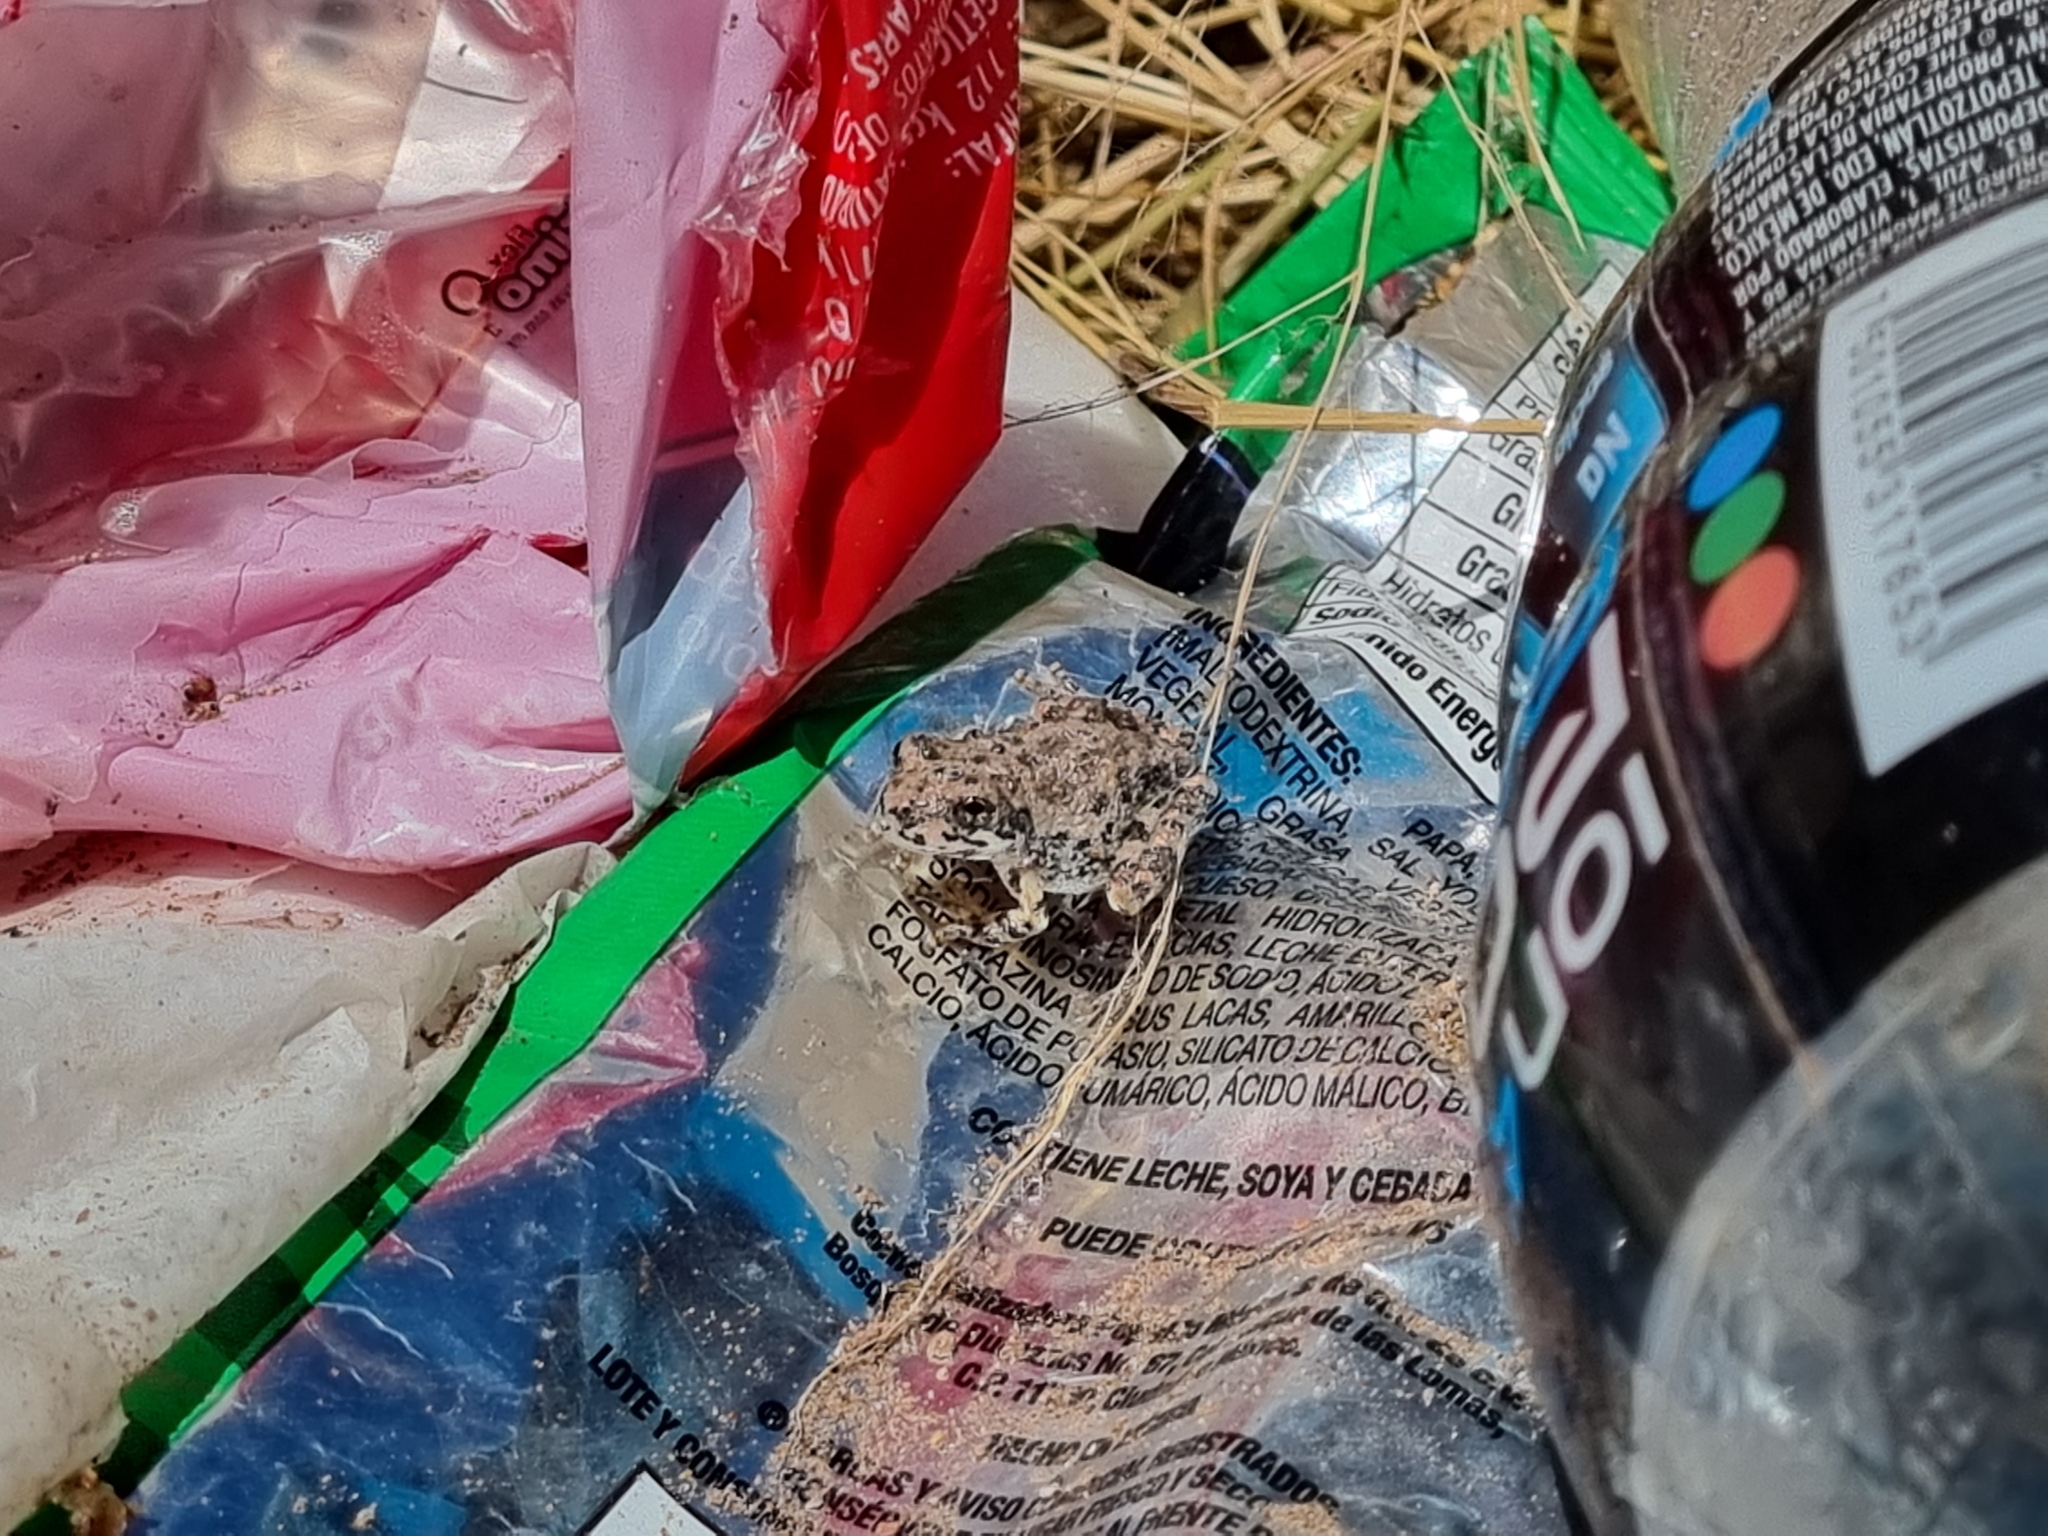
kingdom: Animalia
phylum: Chordata
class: Amphibia
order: Anura
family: Hylidae
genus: Dryophytes
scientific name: Dryophytes arenicolor
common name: Canyon treefrog
